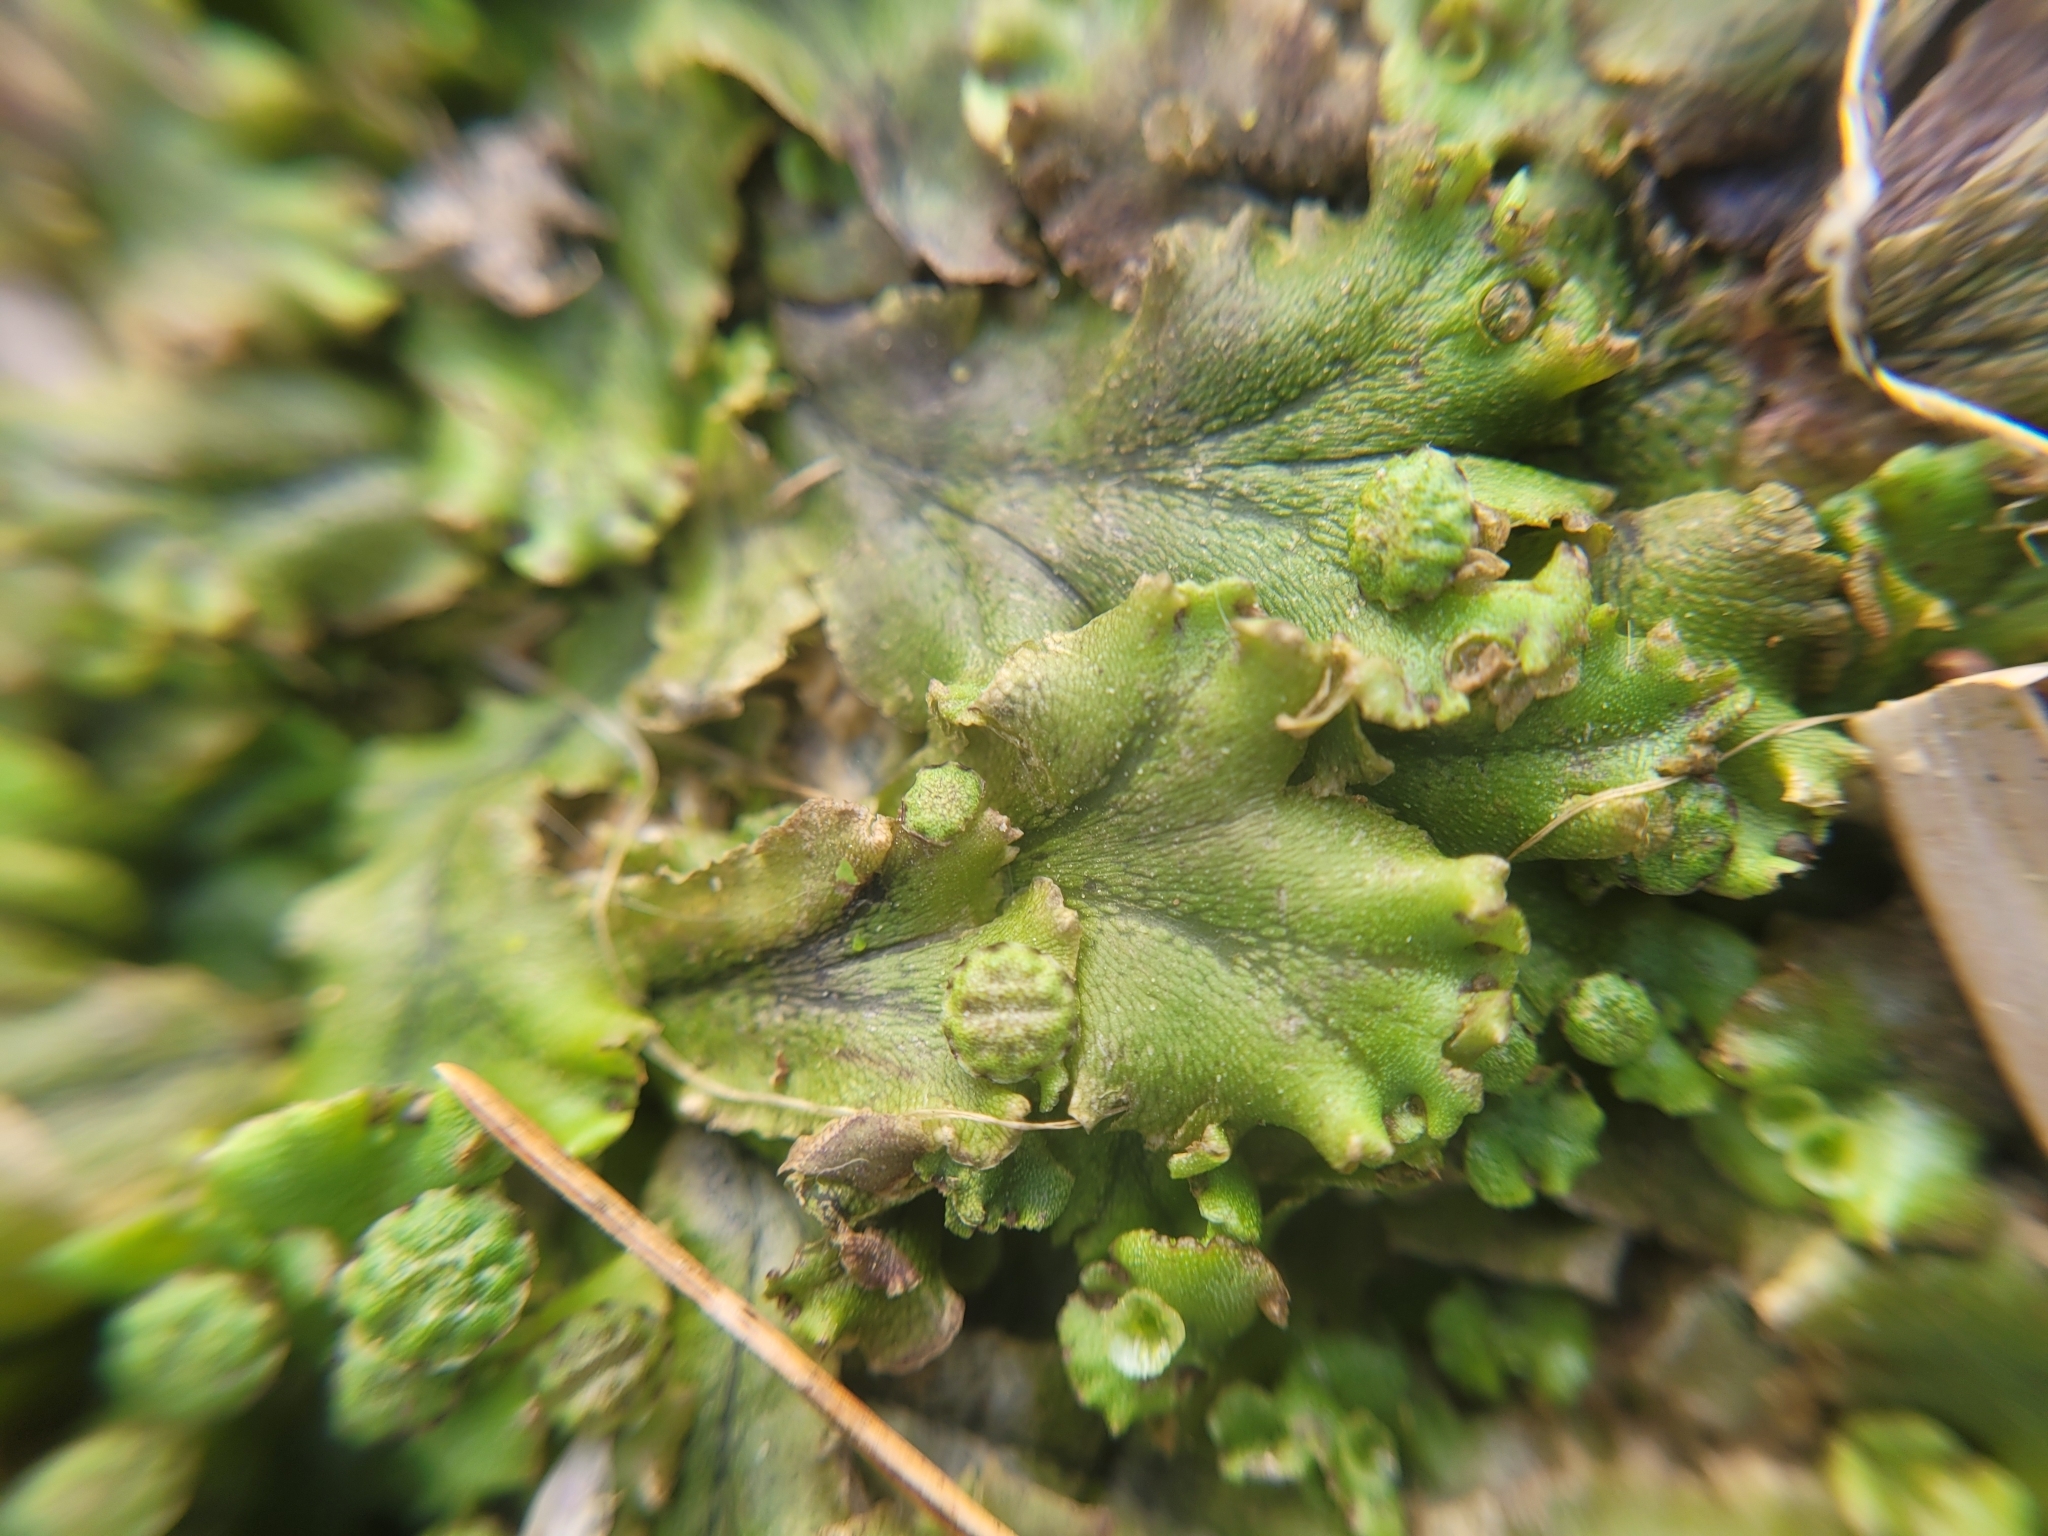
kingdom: Plantae
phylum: Marchantiophyta
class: Marchantiopsida
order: Marchantiales
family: Marchantiaceae
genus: Marchantia
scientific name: Marchantia polymorpha
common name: Common liverwort
